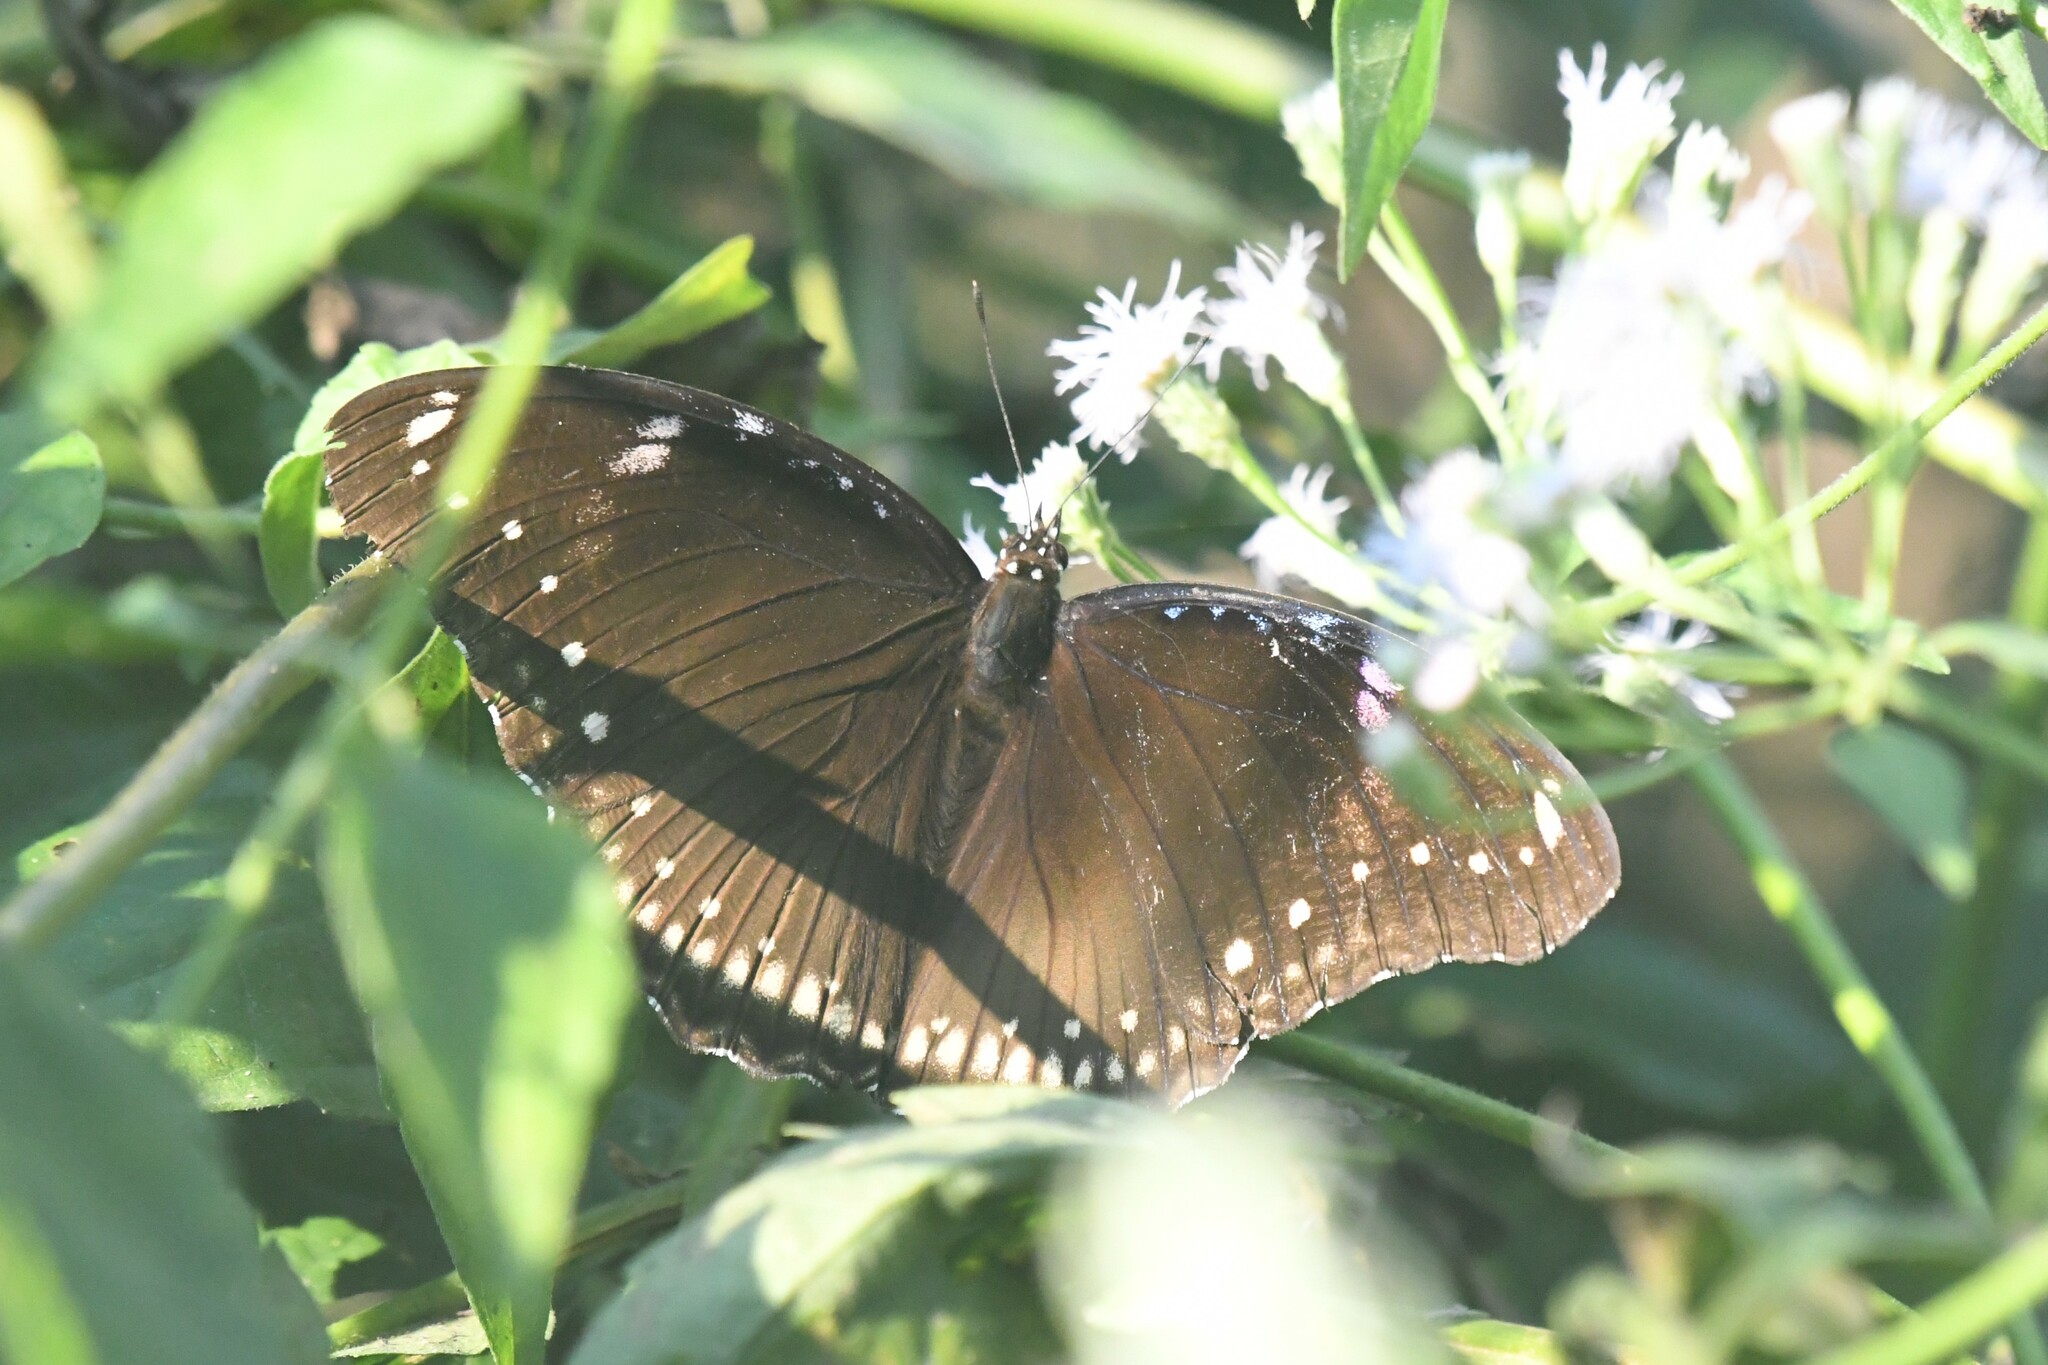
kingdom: Animalia
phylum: Arthropoda
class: Insecta
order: Lepidoptera
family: Nymphalidae
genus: Hypolimnas
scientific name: Hypolimnas bolina
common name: Great eggfly
